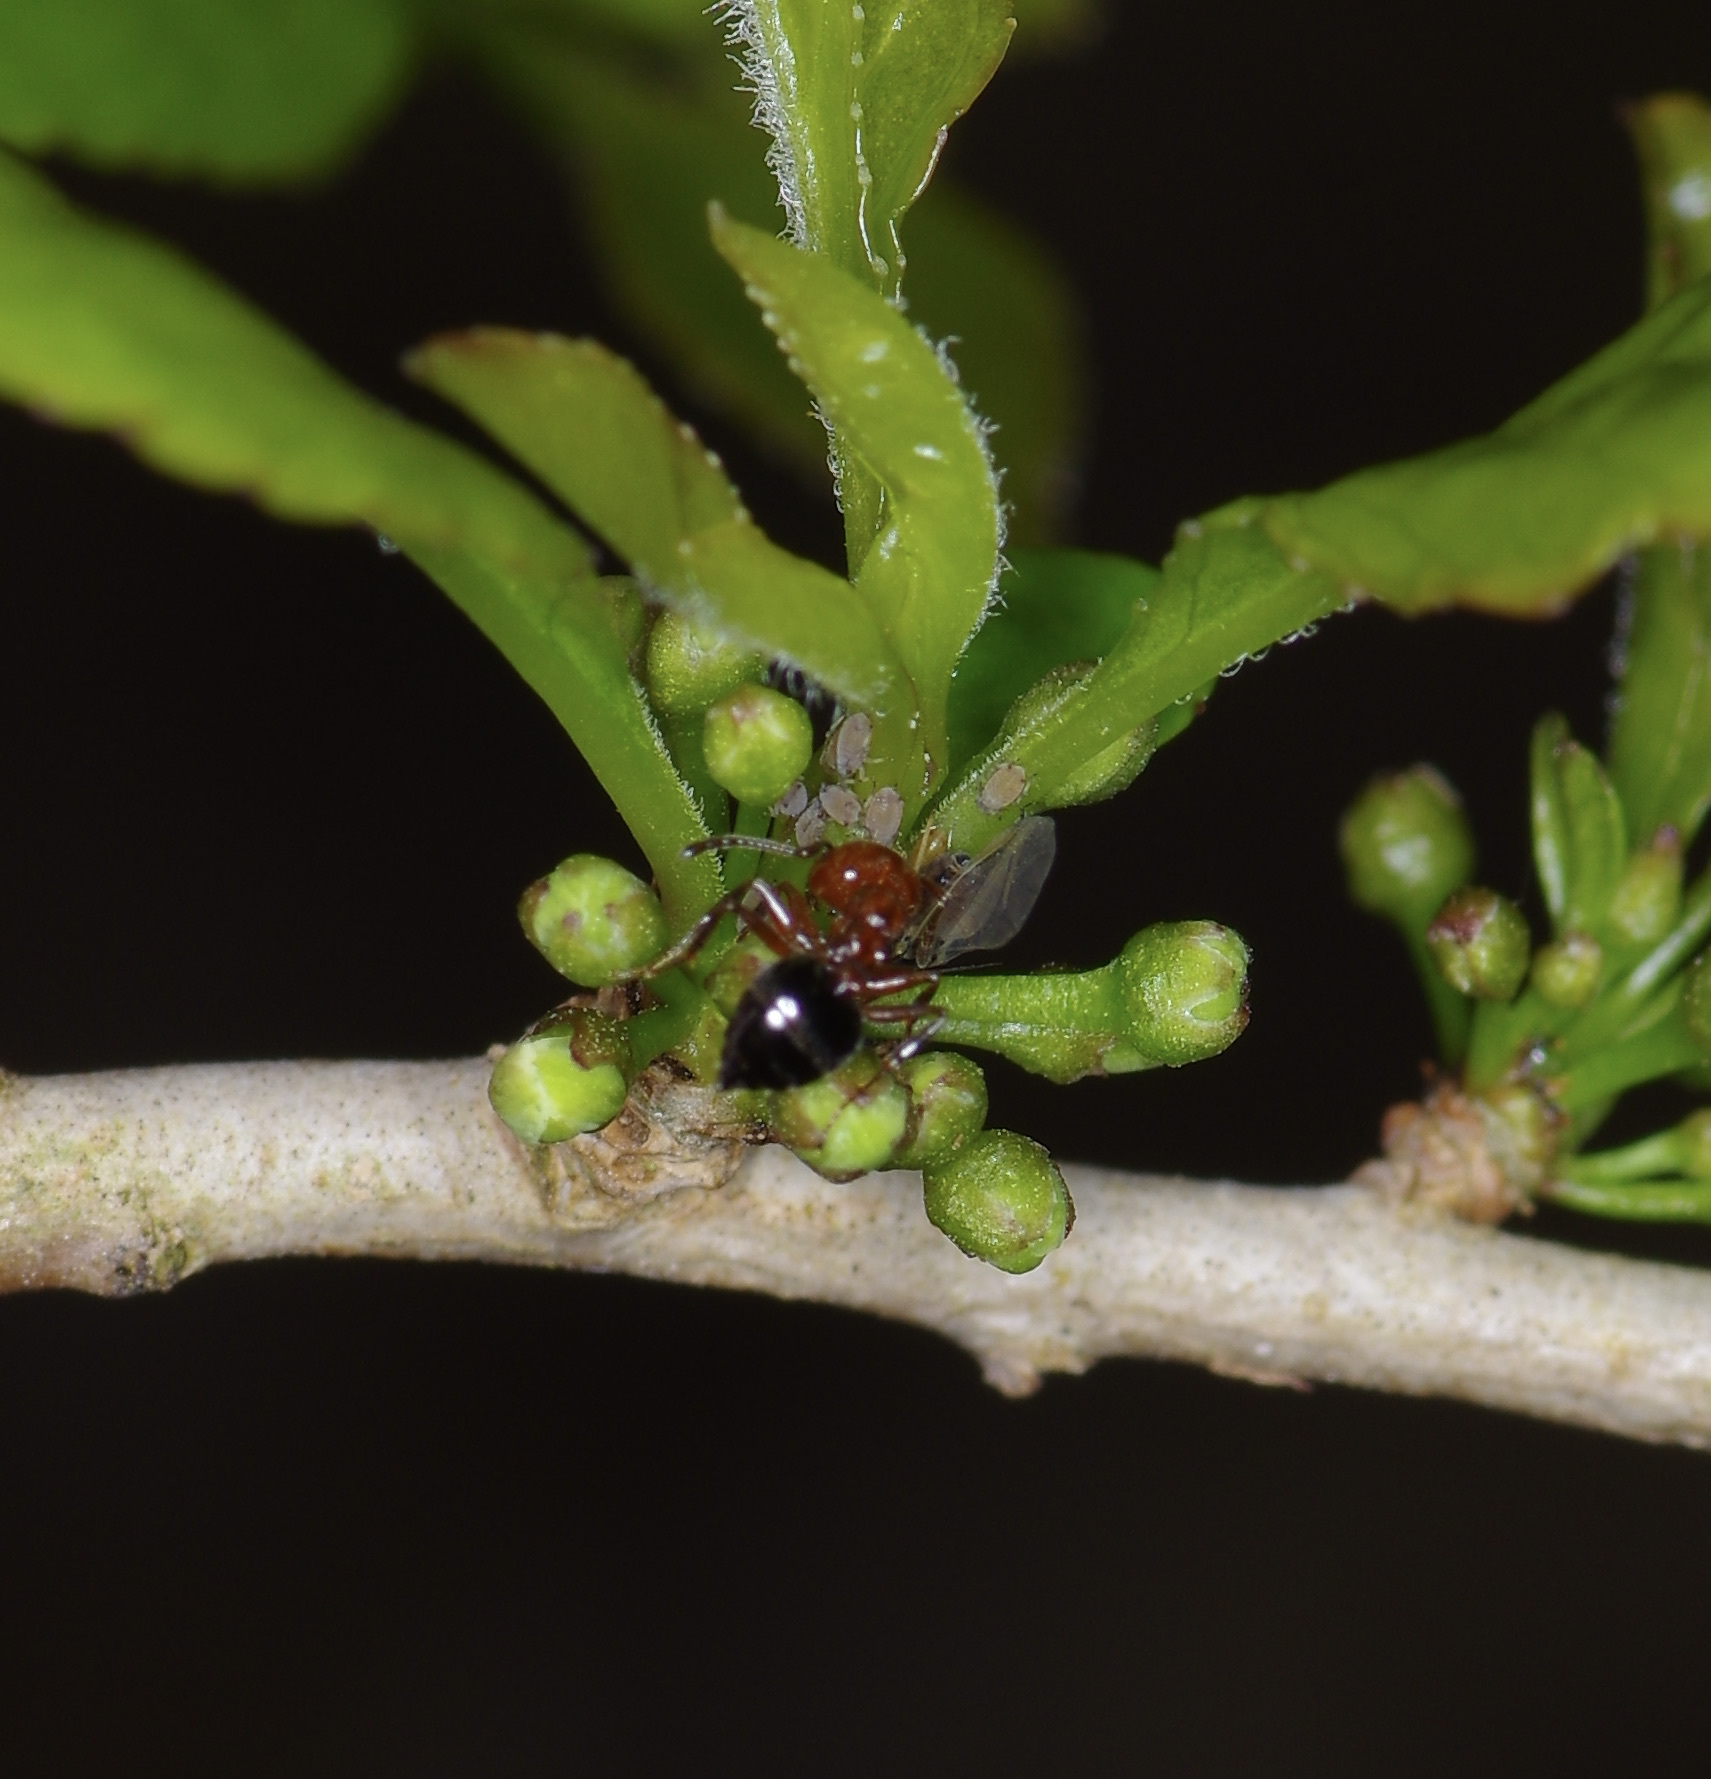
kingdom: Animalia
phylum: Arthropoda
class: Insecta
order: Hymenoptera
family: Formicidae
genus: Crematogaster
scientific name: Crematogaster laeviuscula
